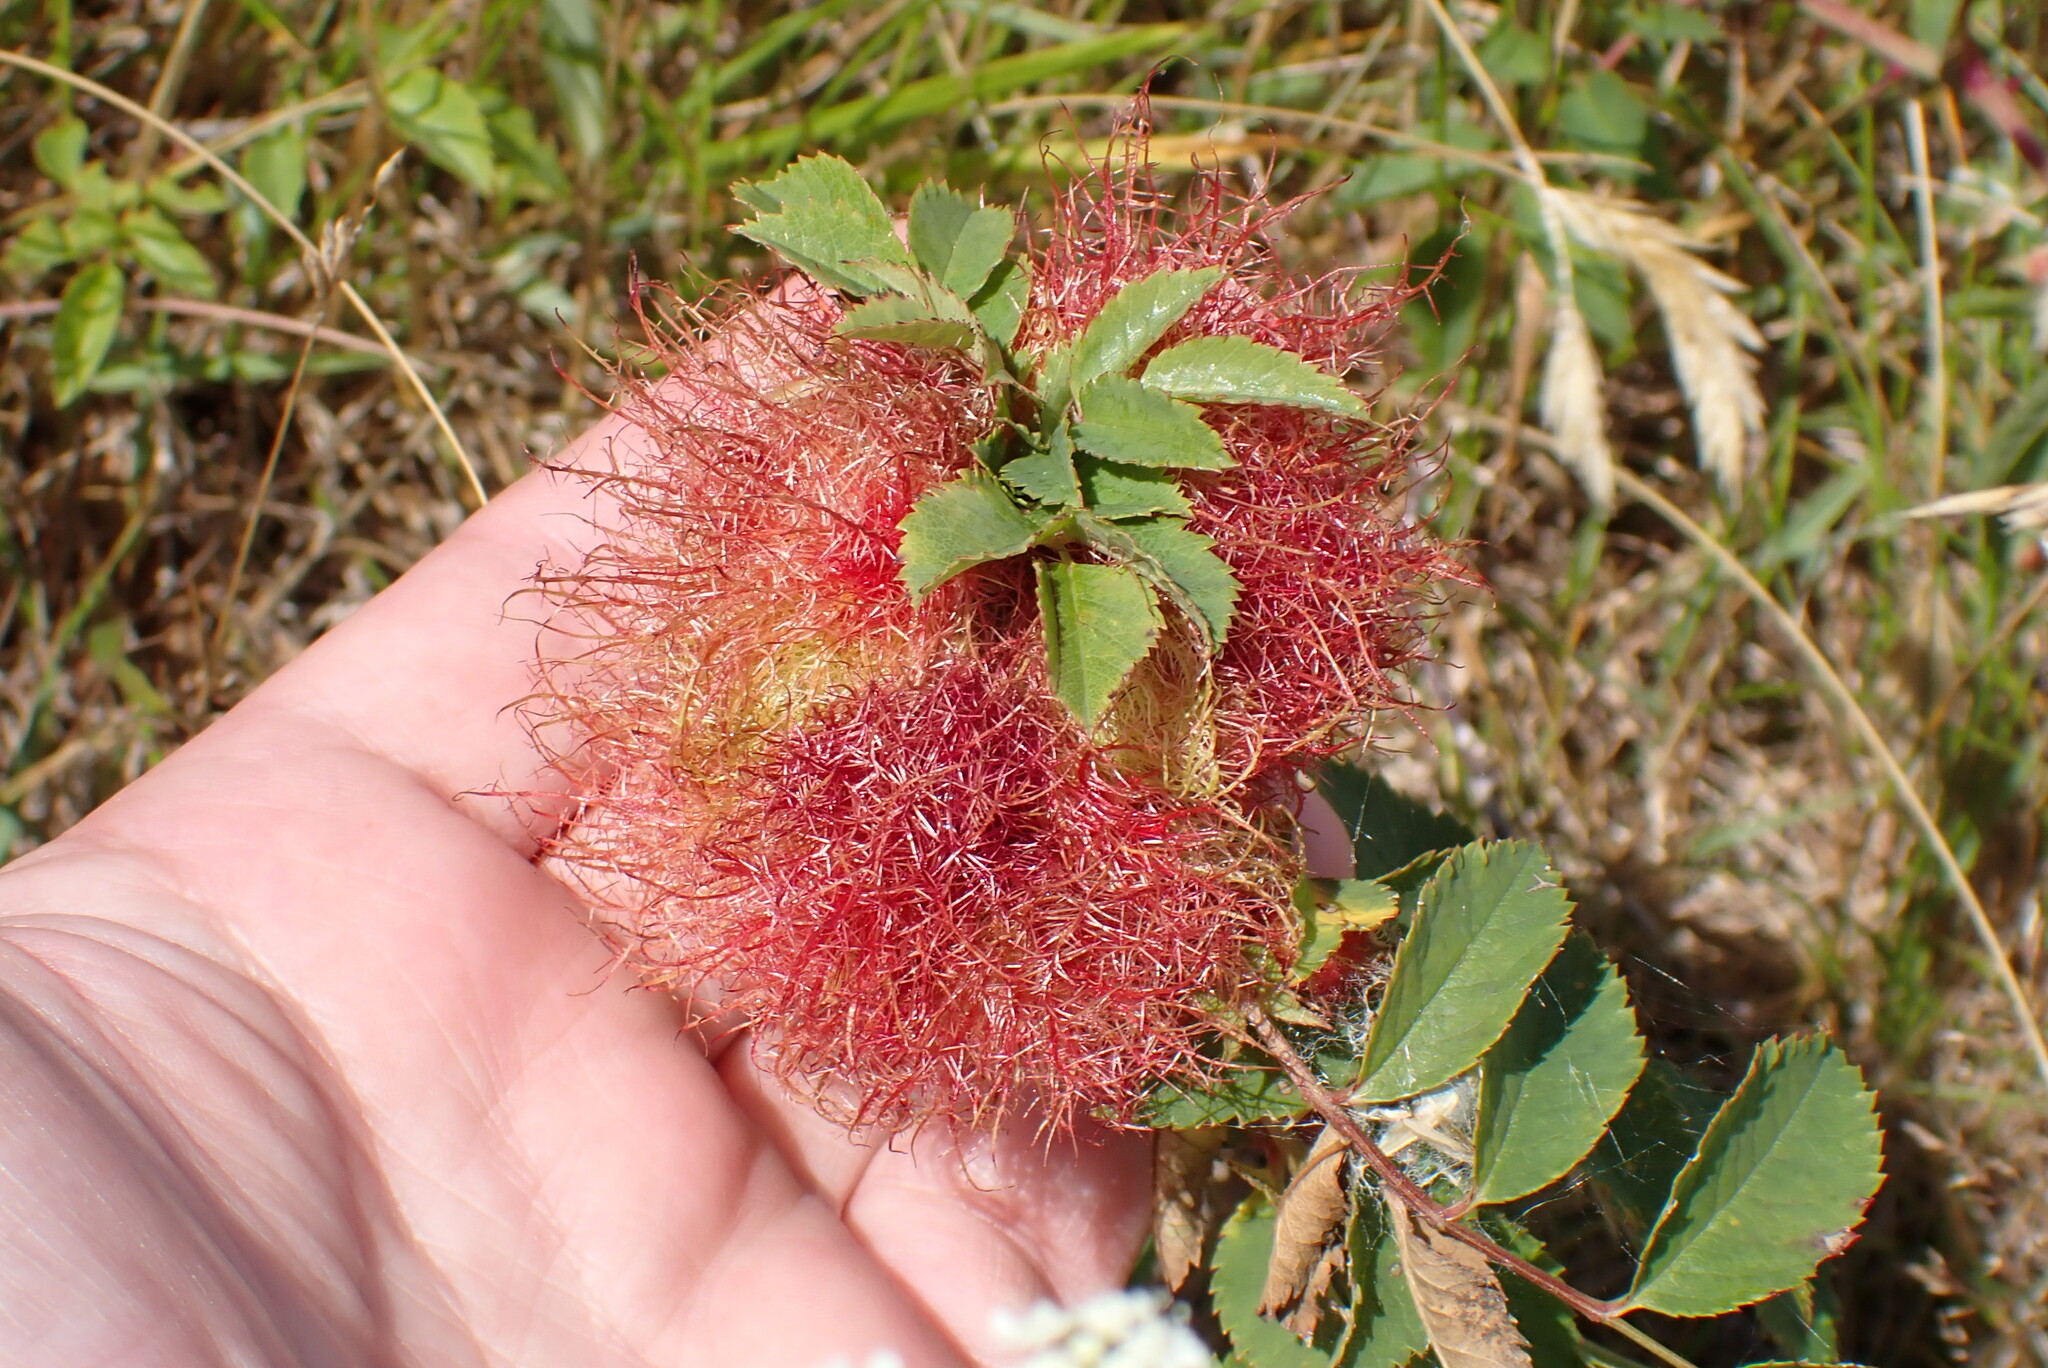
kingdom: Animalia
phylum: Arthropoda
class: Insecta
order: Hymenoptera
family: Cynipidae
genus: Diplolepis
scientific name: Diplolepis rosae
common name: Bedeguar gall
